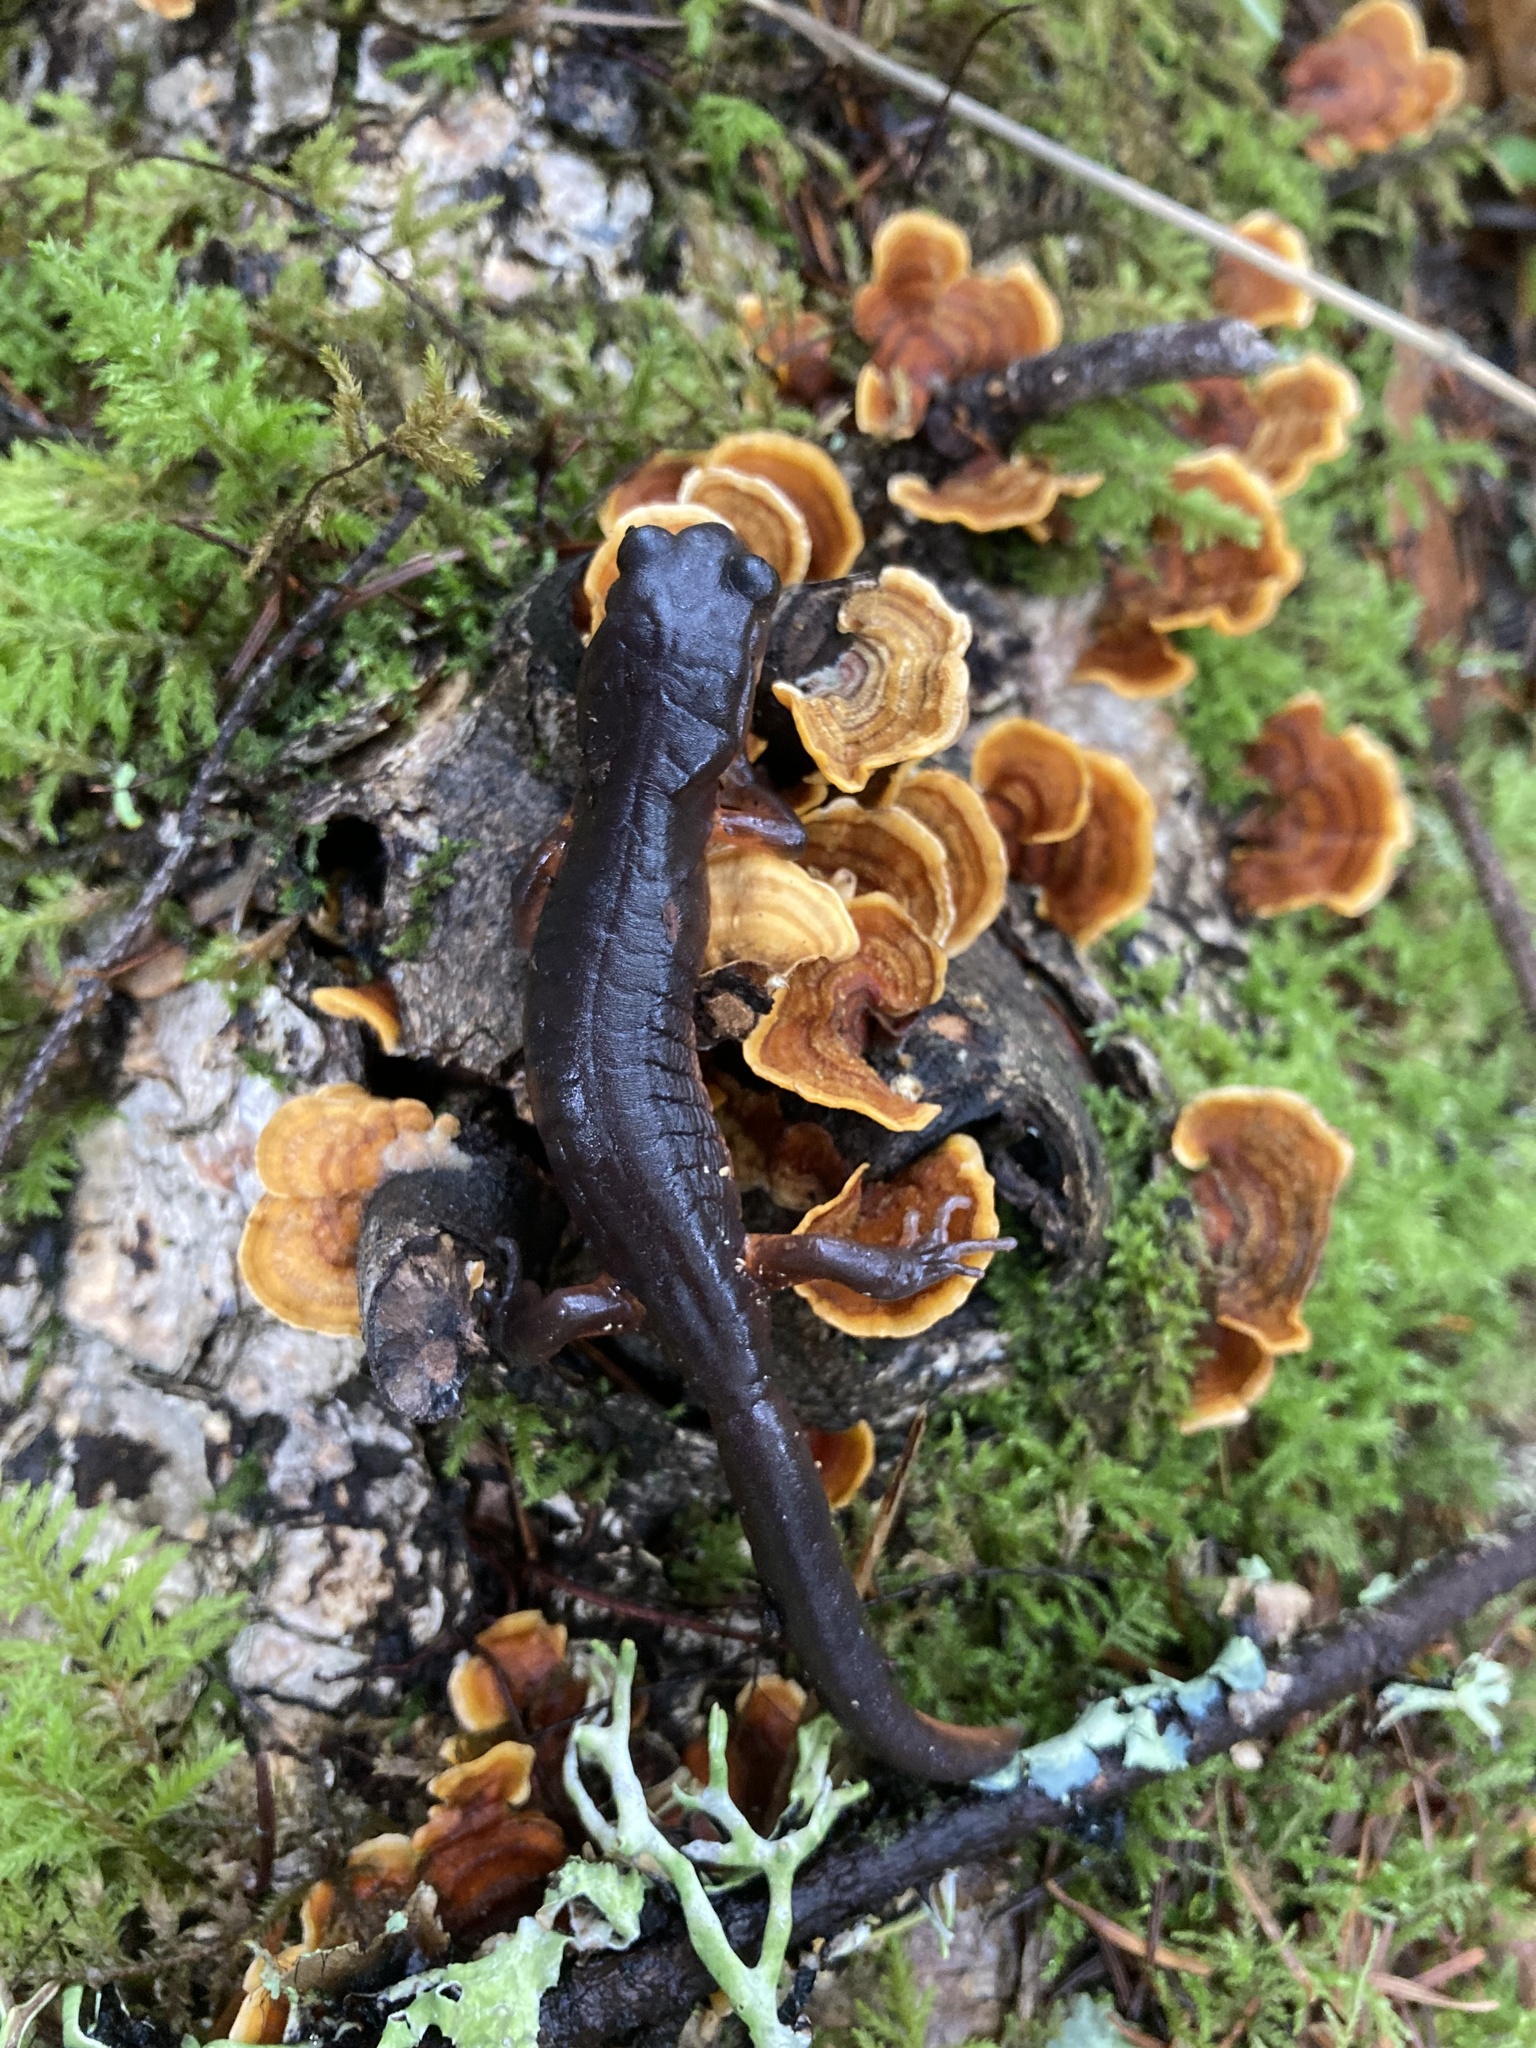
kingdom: Animalia
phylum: Chordata
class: Amphibia
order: Caudata
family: Plethodontidae
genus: Ensatina
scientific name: Ensatina eschscholtzii
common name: Ensatina
